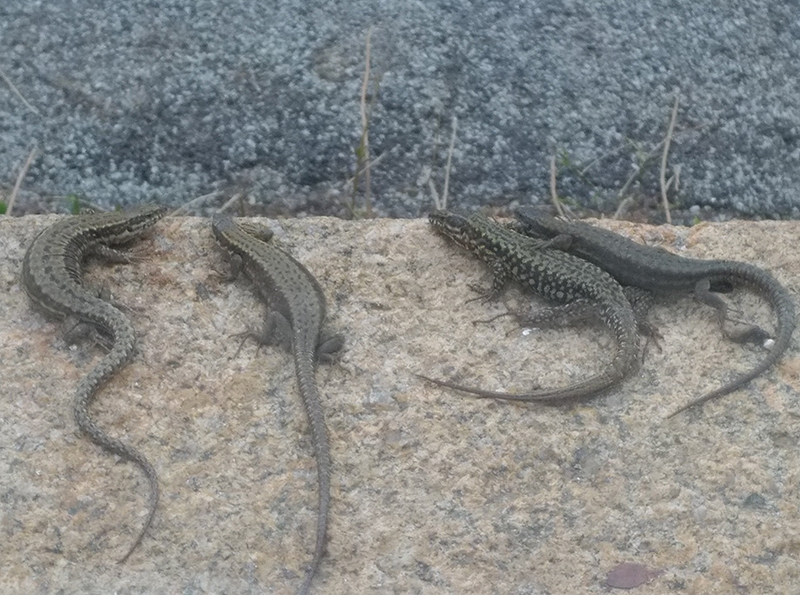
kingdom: Animalia
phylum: Chordata
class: Squamata
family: Lacertidae
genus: Podarcis
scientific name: Podarcis muralis
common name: Common wall lizard
